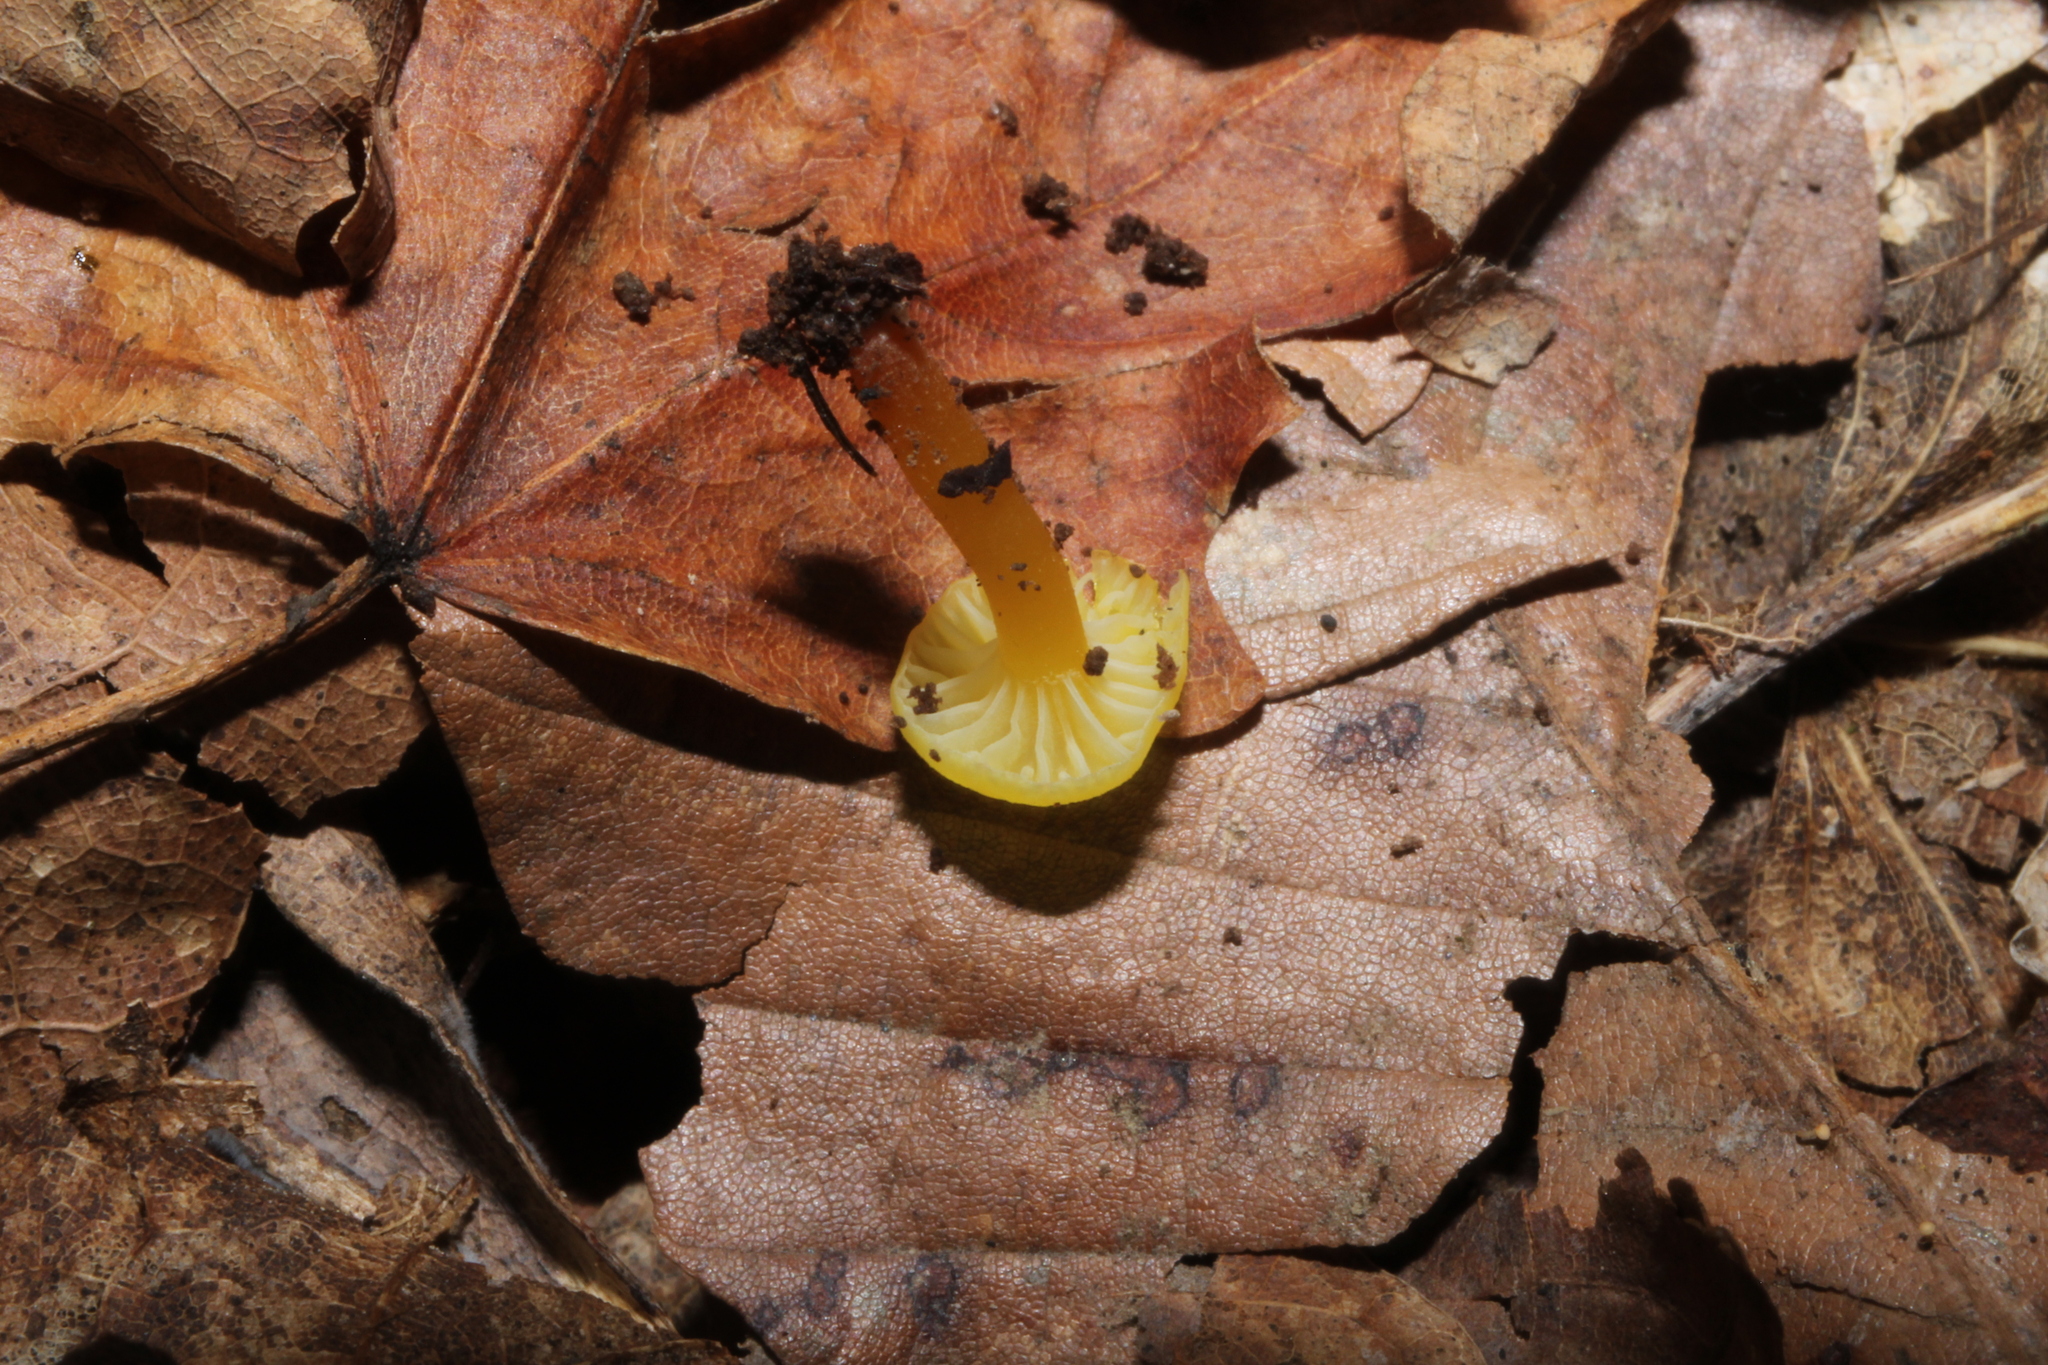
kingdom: Fungi
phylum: Basidiomycota
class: Agaricomycetes
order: Agaricales
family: Hygrophoraceae
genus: Hygrocybe
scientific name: Hygrocybe parvula
